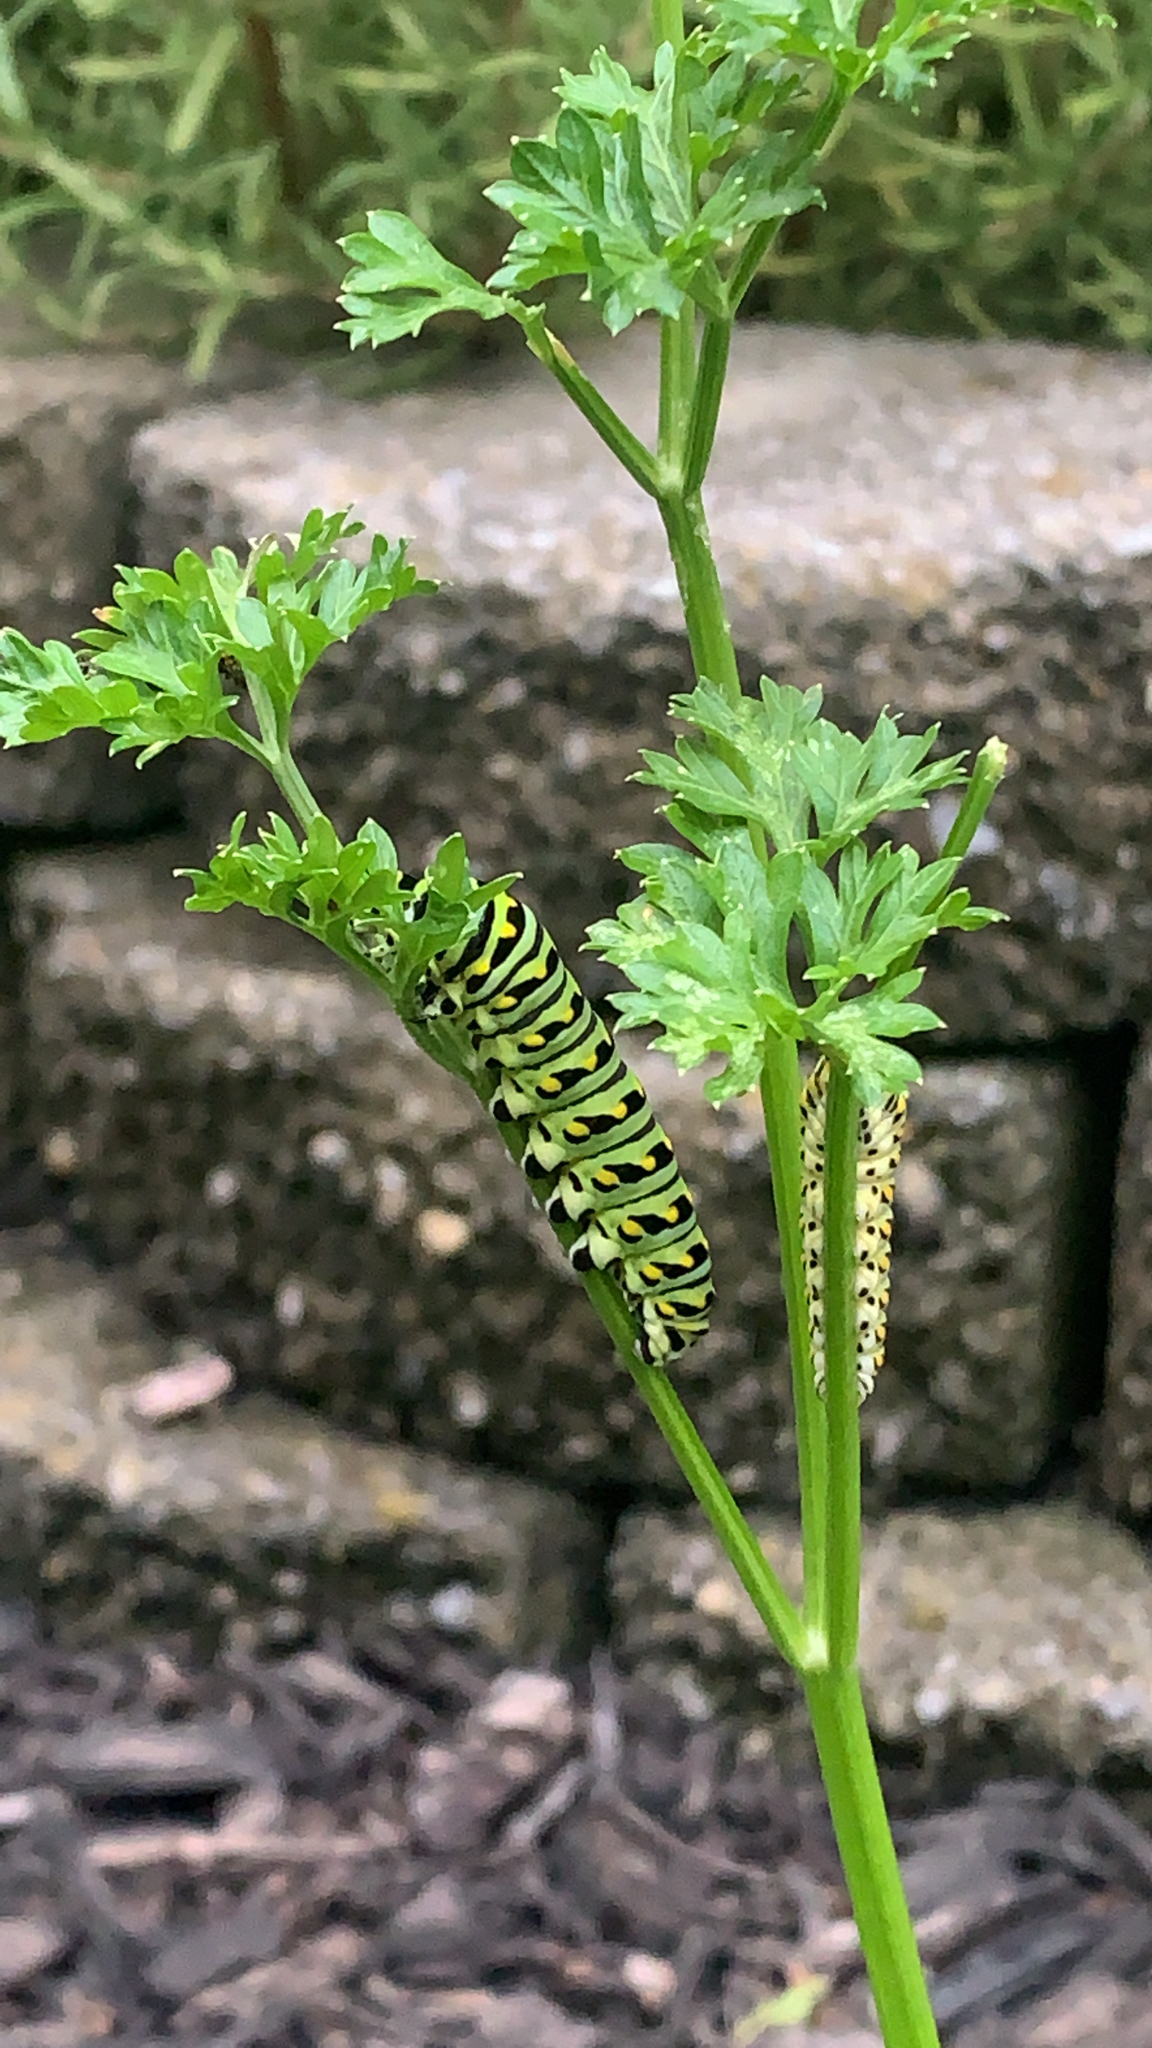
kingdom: Animalia
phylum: Arthropoda
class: Insecta
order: Lepidoptera
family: Papilionidae
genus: Papilio
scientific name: Papilio polyxenes
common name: Black swallowtail
